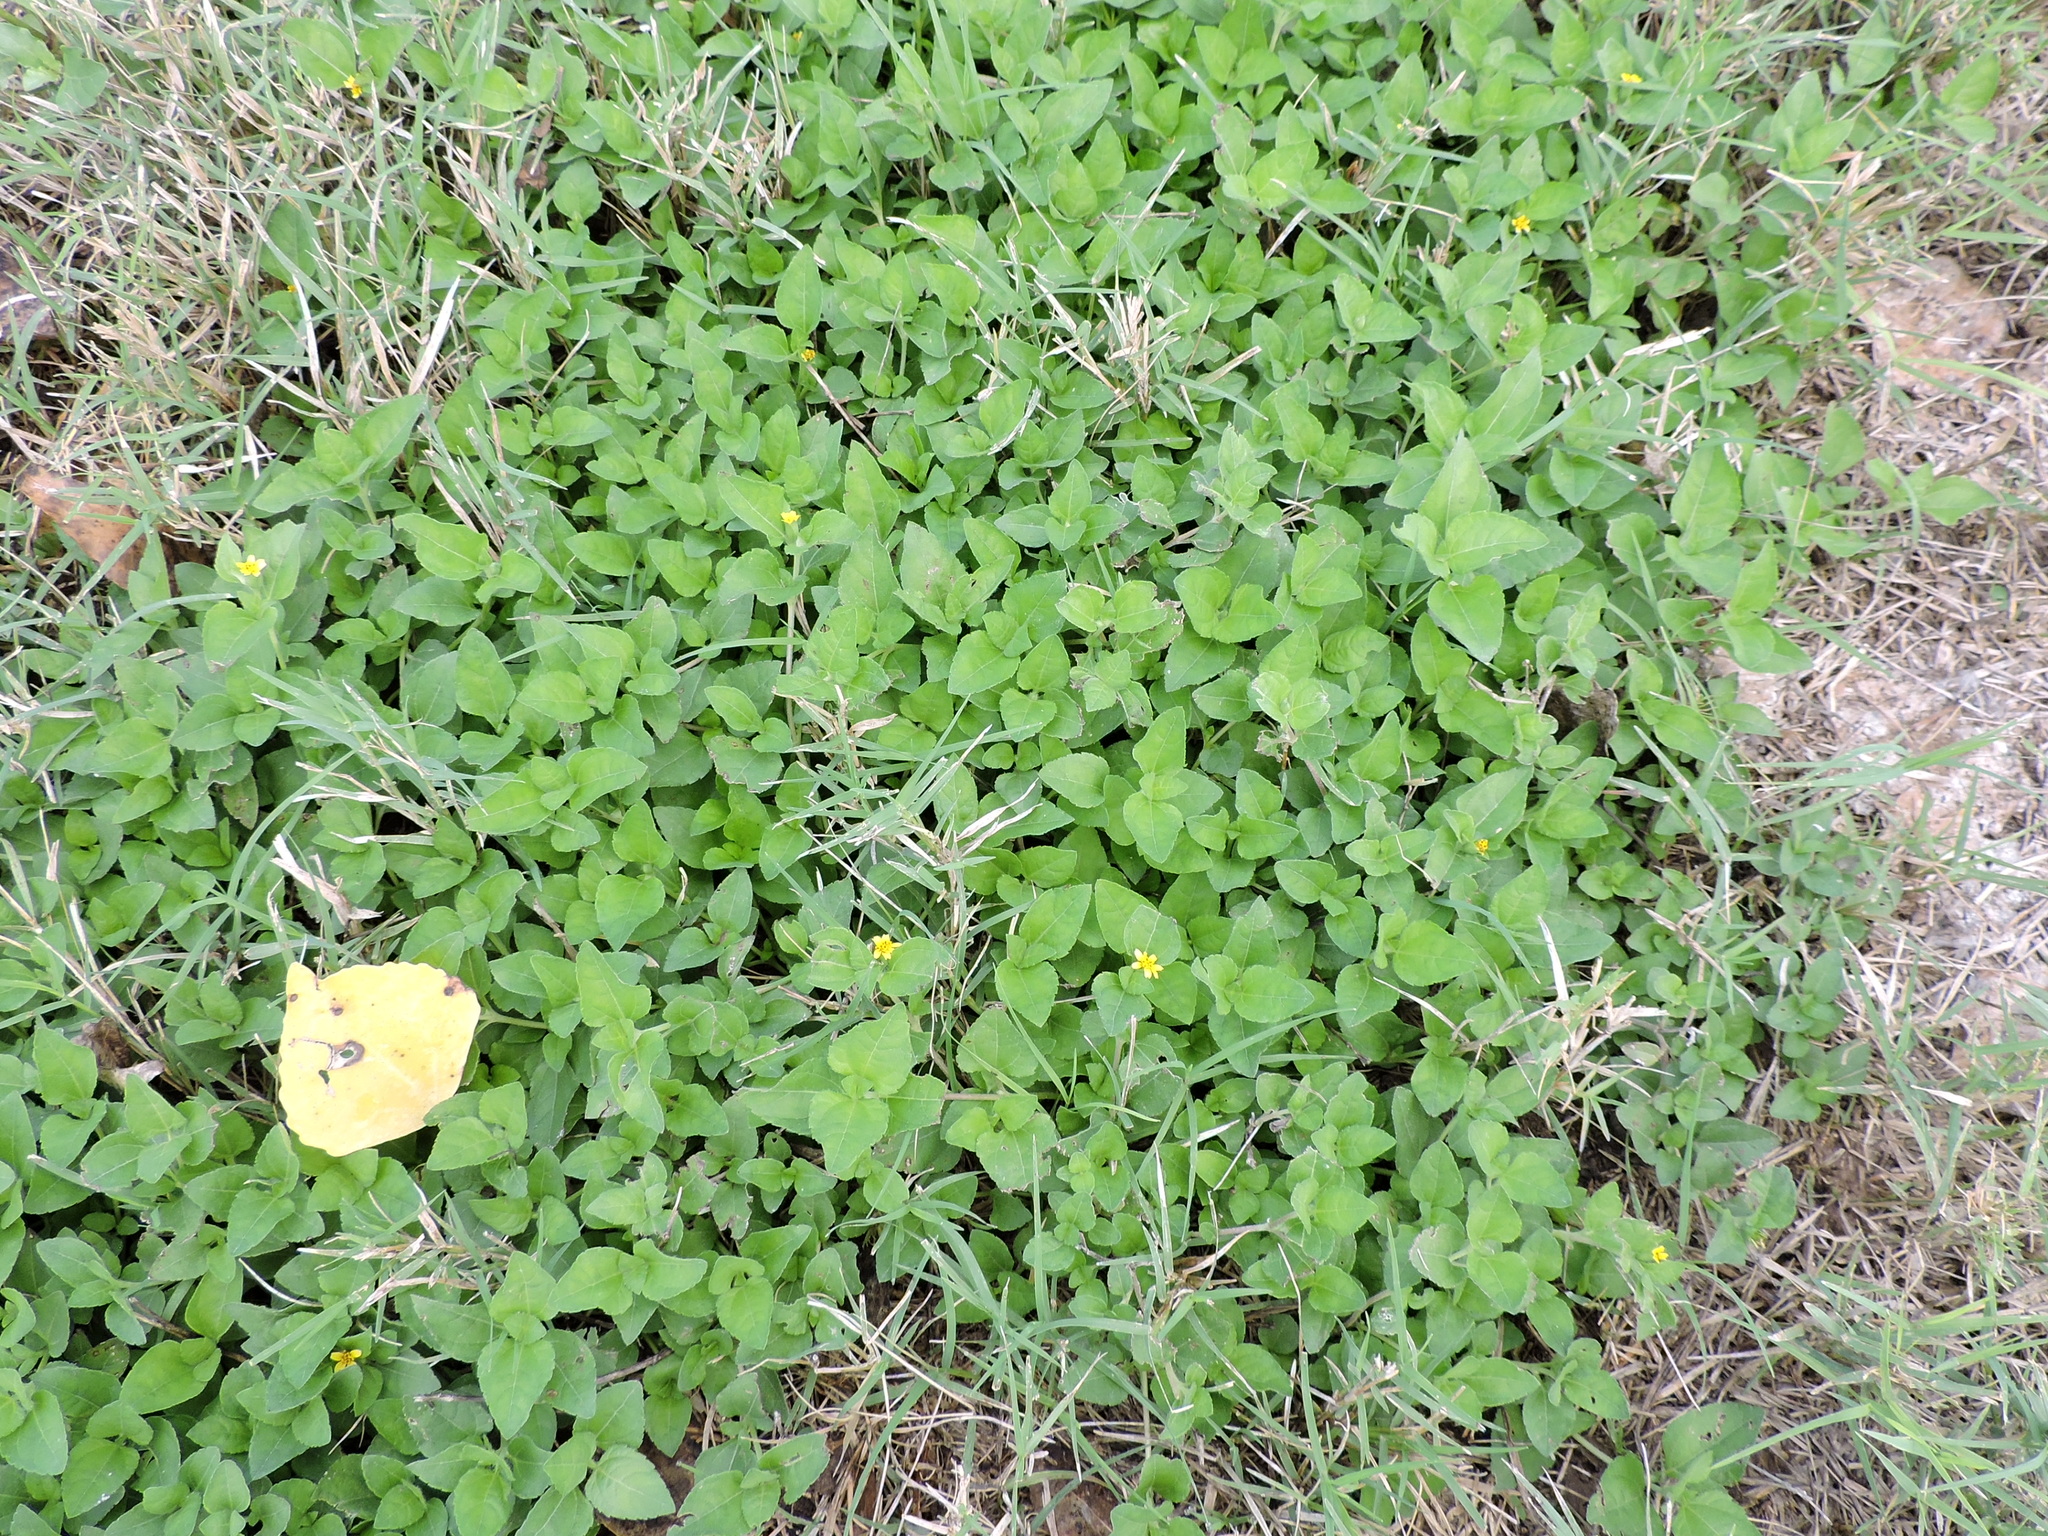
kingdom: Plantae
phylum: Tracheophyta
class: Magnoliopsida
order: Asterales
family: Asteraceae
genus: Calyptocarpus
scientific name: Calyptocarpus vialis
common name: Straggler daisy
